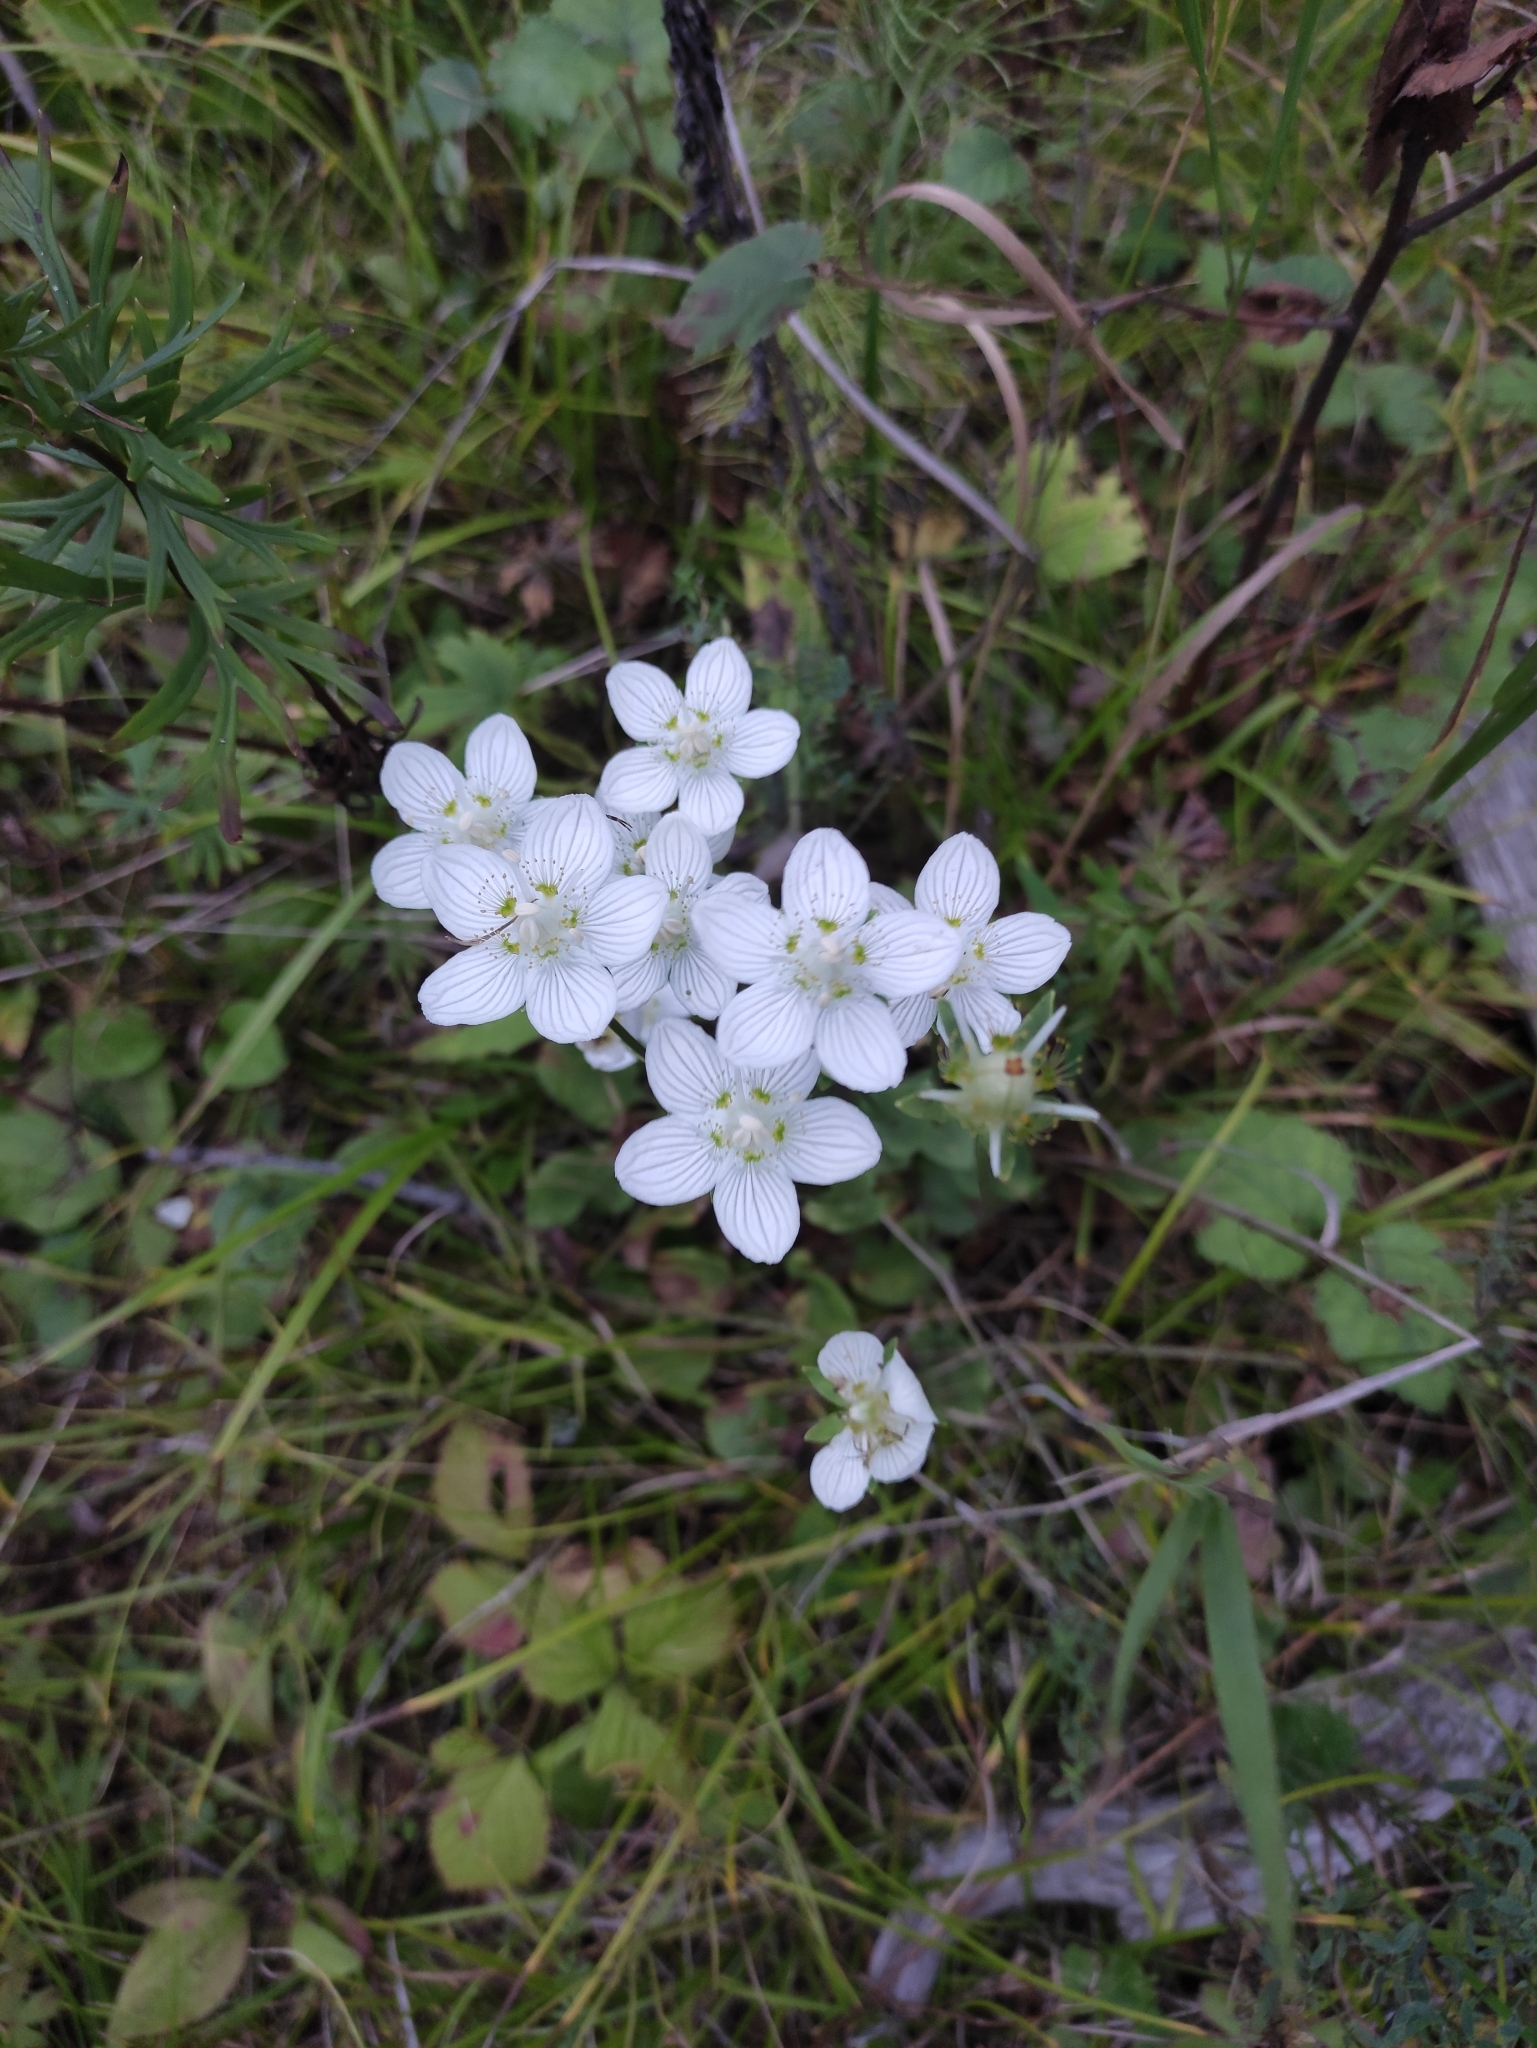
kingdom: Plantae
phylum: Tracheophyta
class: Magnoliopsida
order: Celastrales
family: Parnassiaceae
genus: Parnassia
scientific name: Parnassia palustris
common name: Grass-of-parnassus
